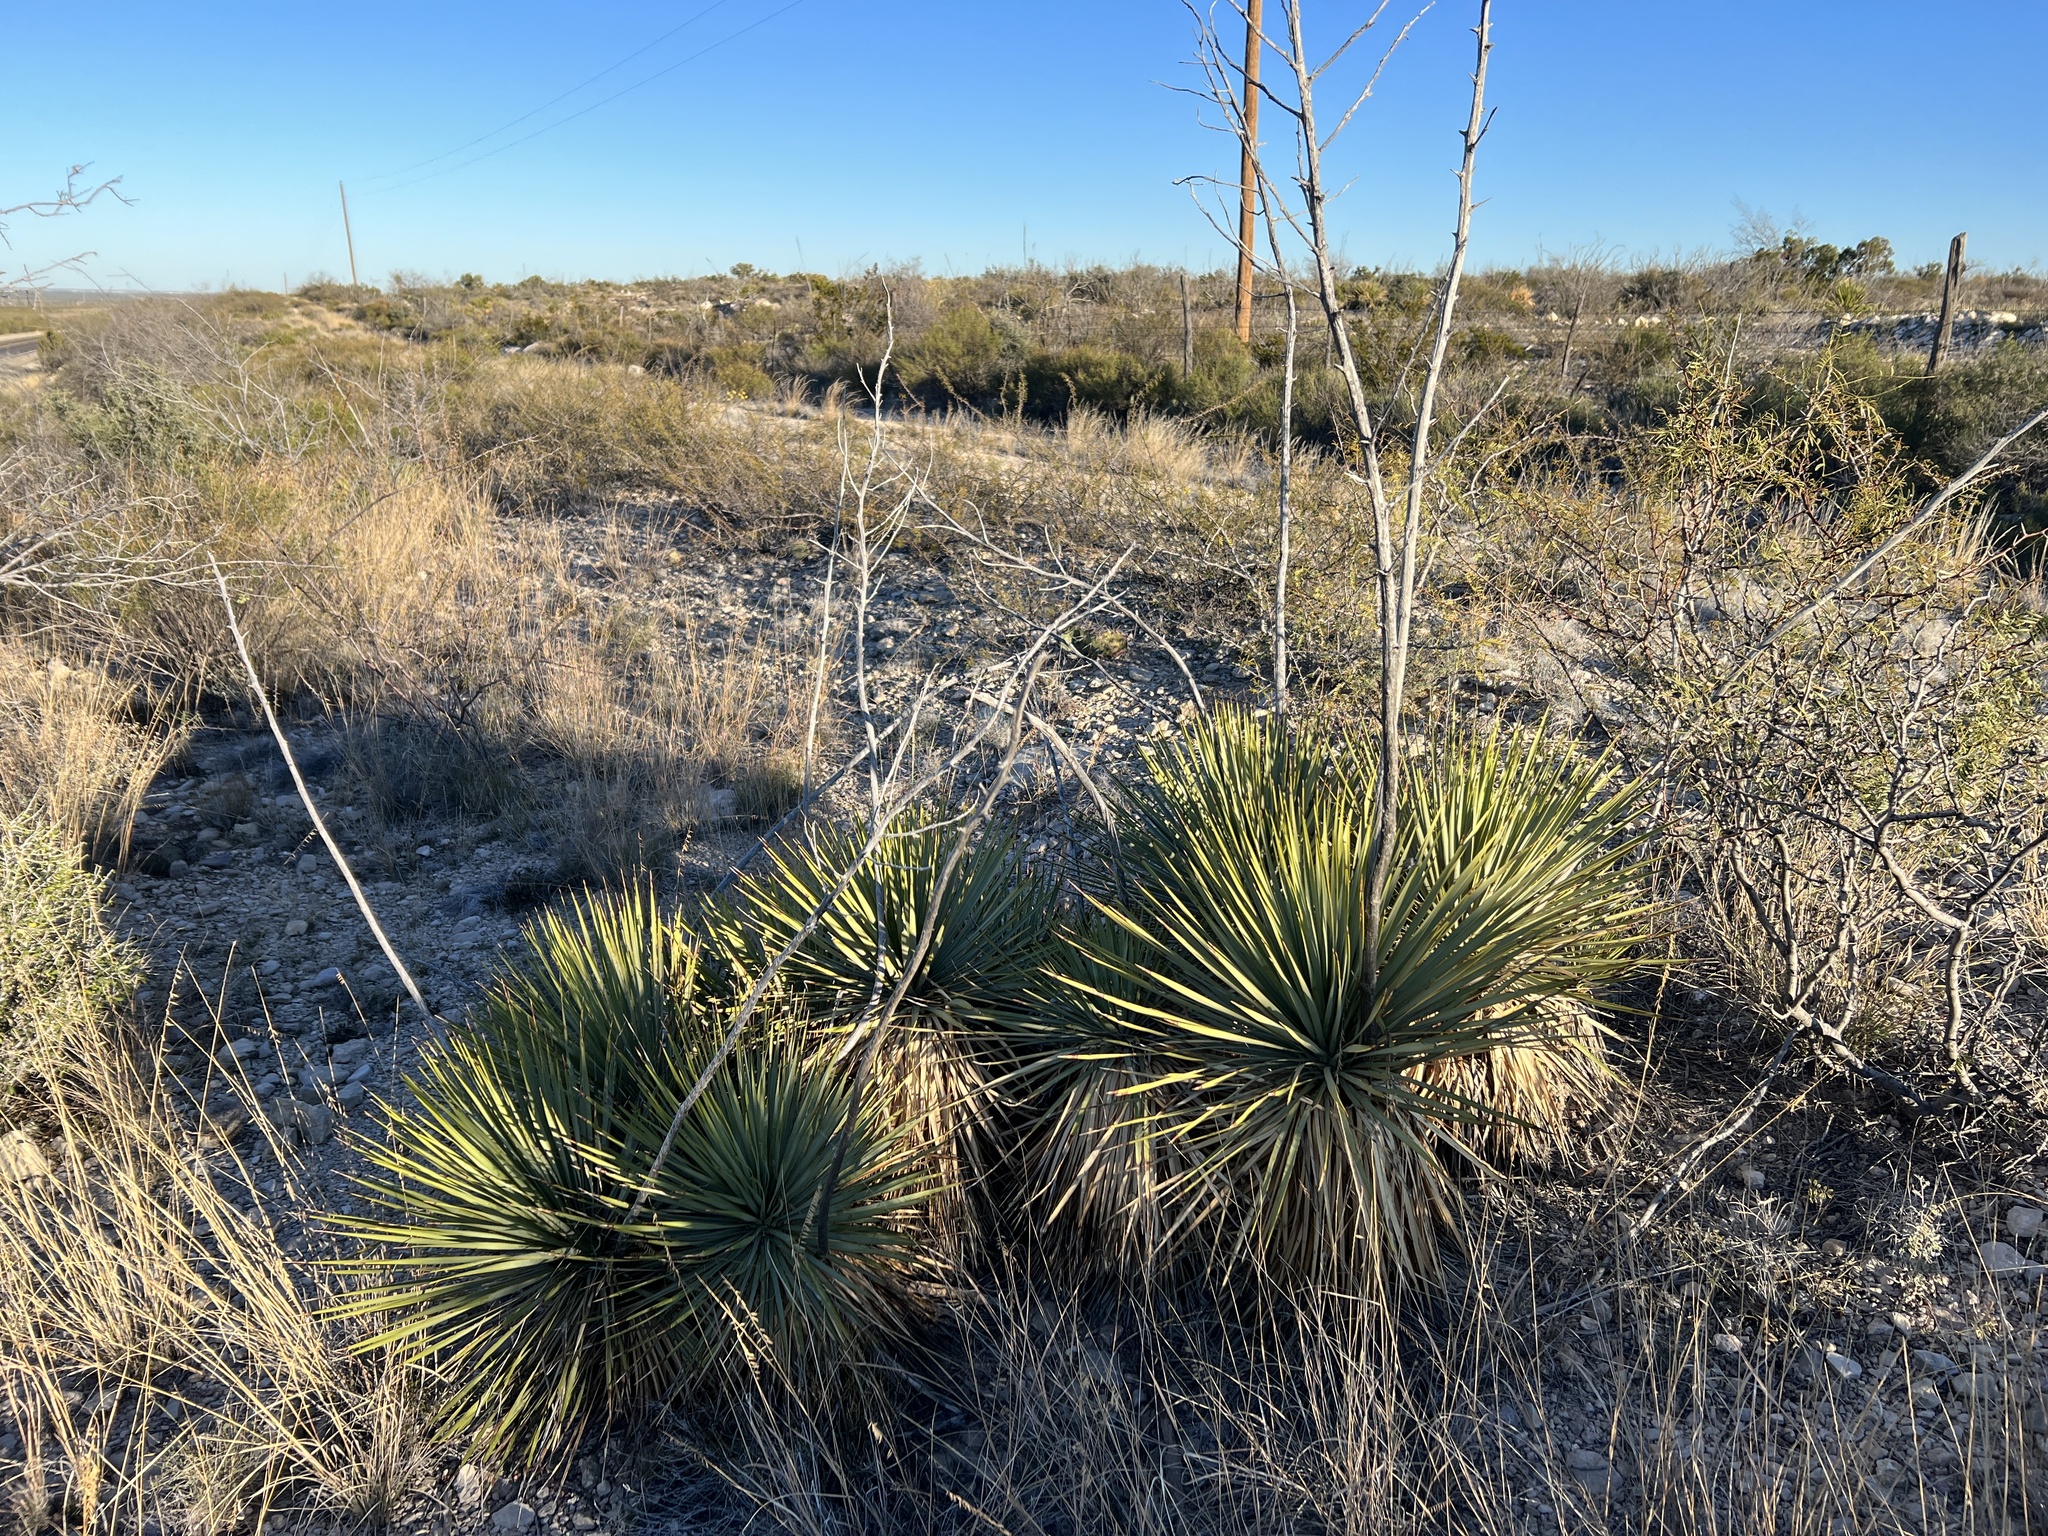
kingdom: Plantae
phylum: Tracheophyta
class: Liliopsida
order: Asparagales
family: Asparagaceae
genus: Yucca
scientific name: Yucca thompsoniana
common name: Trans-pecos yucca
